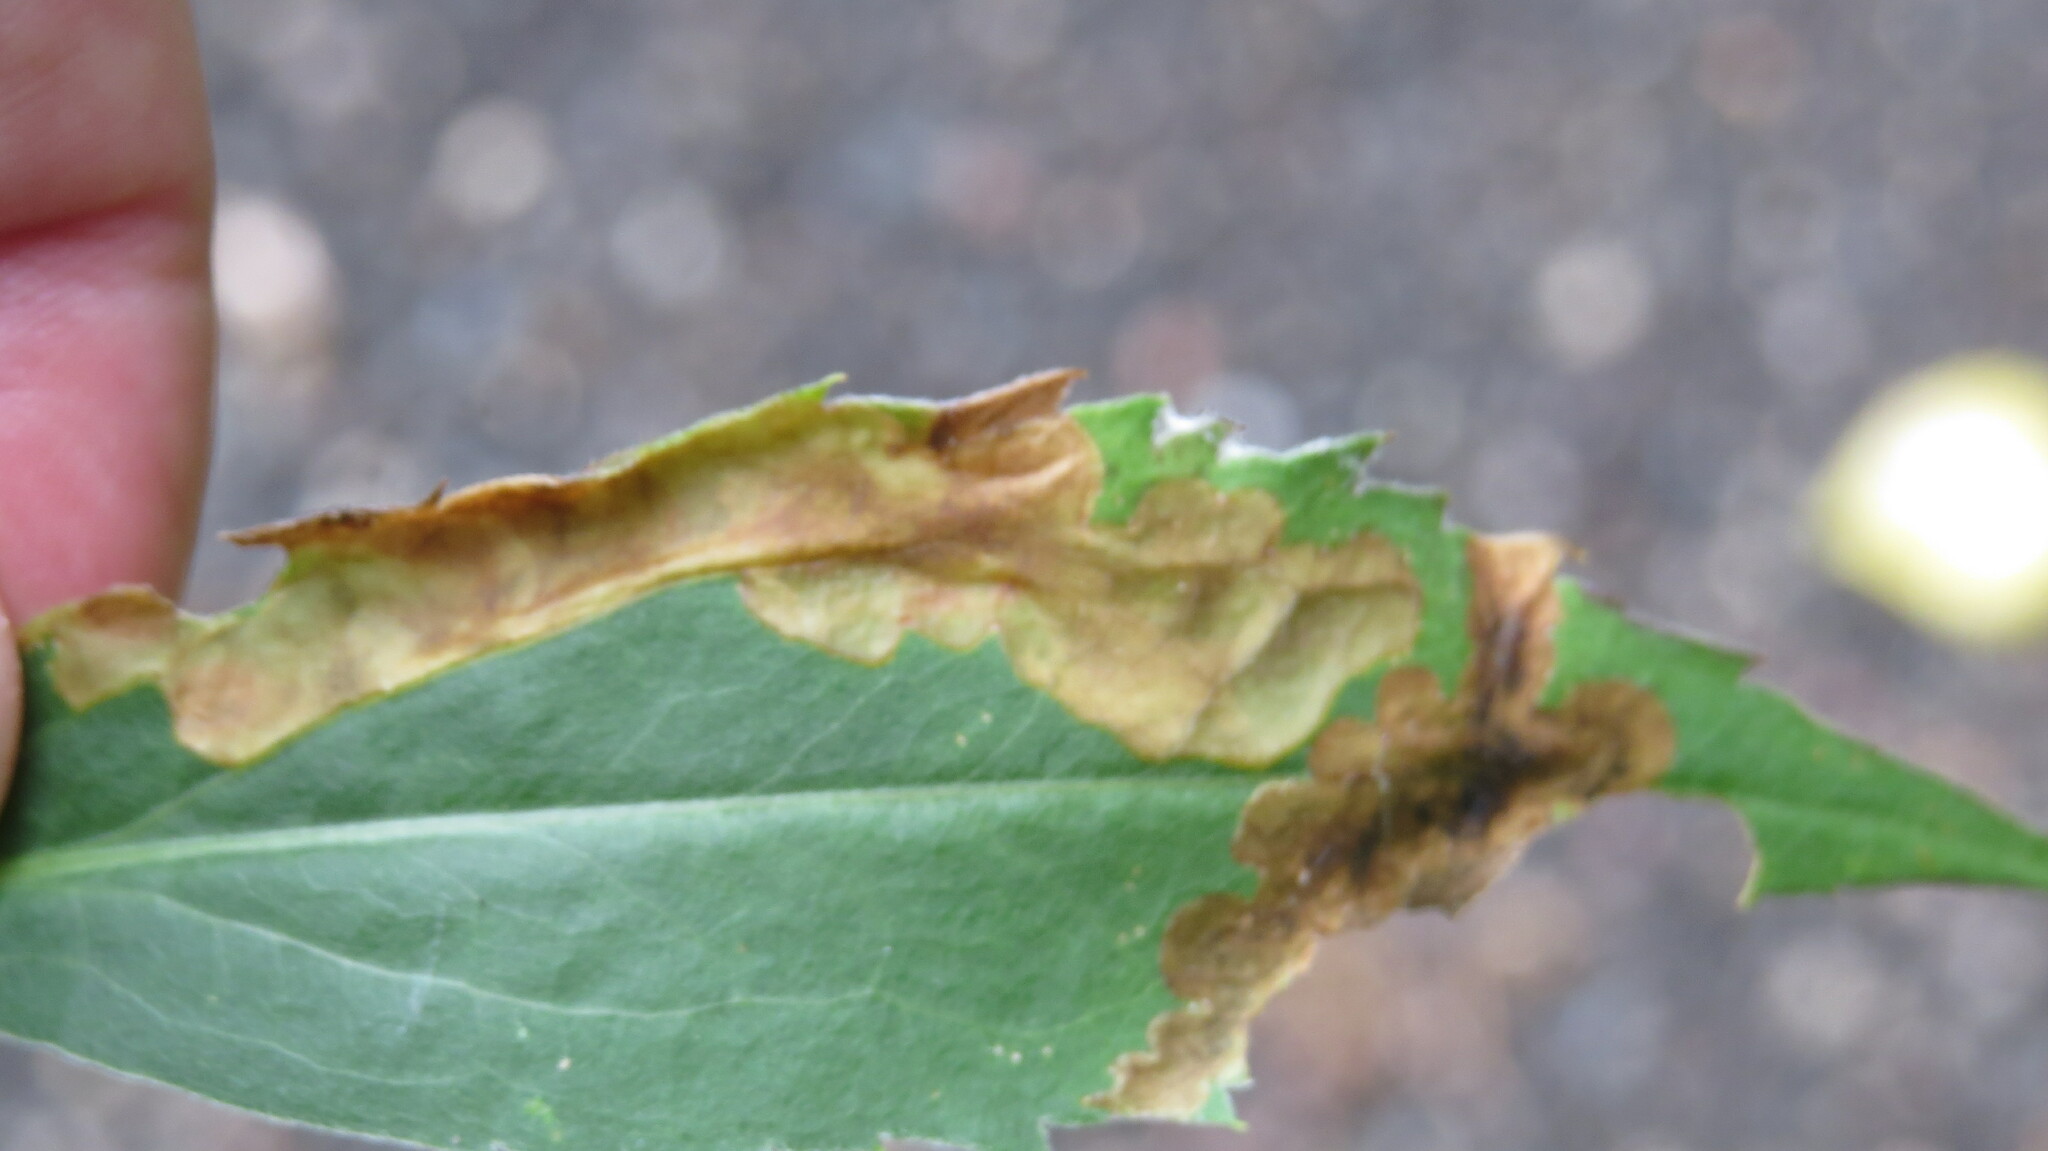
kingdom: Animalia
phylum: Arthropoda
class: Insecta
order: Diptera
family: Agromyzidae
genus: Nemorimyza
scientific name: Nemorimyza posticata
